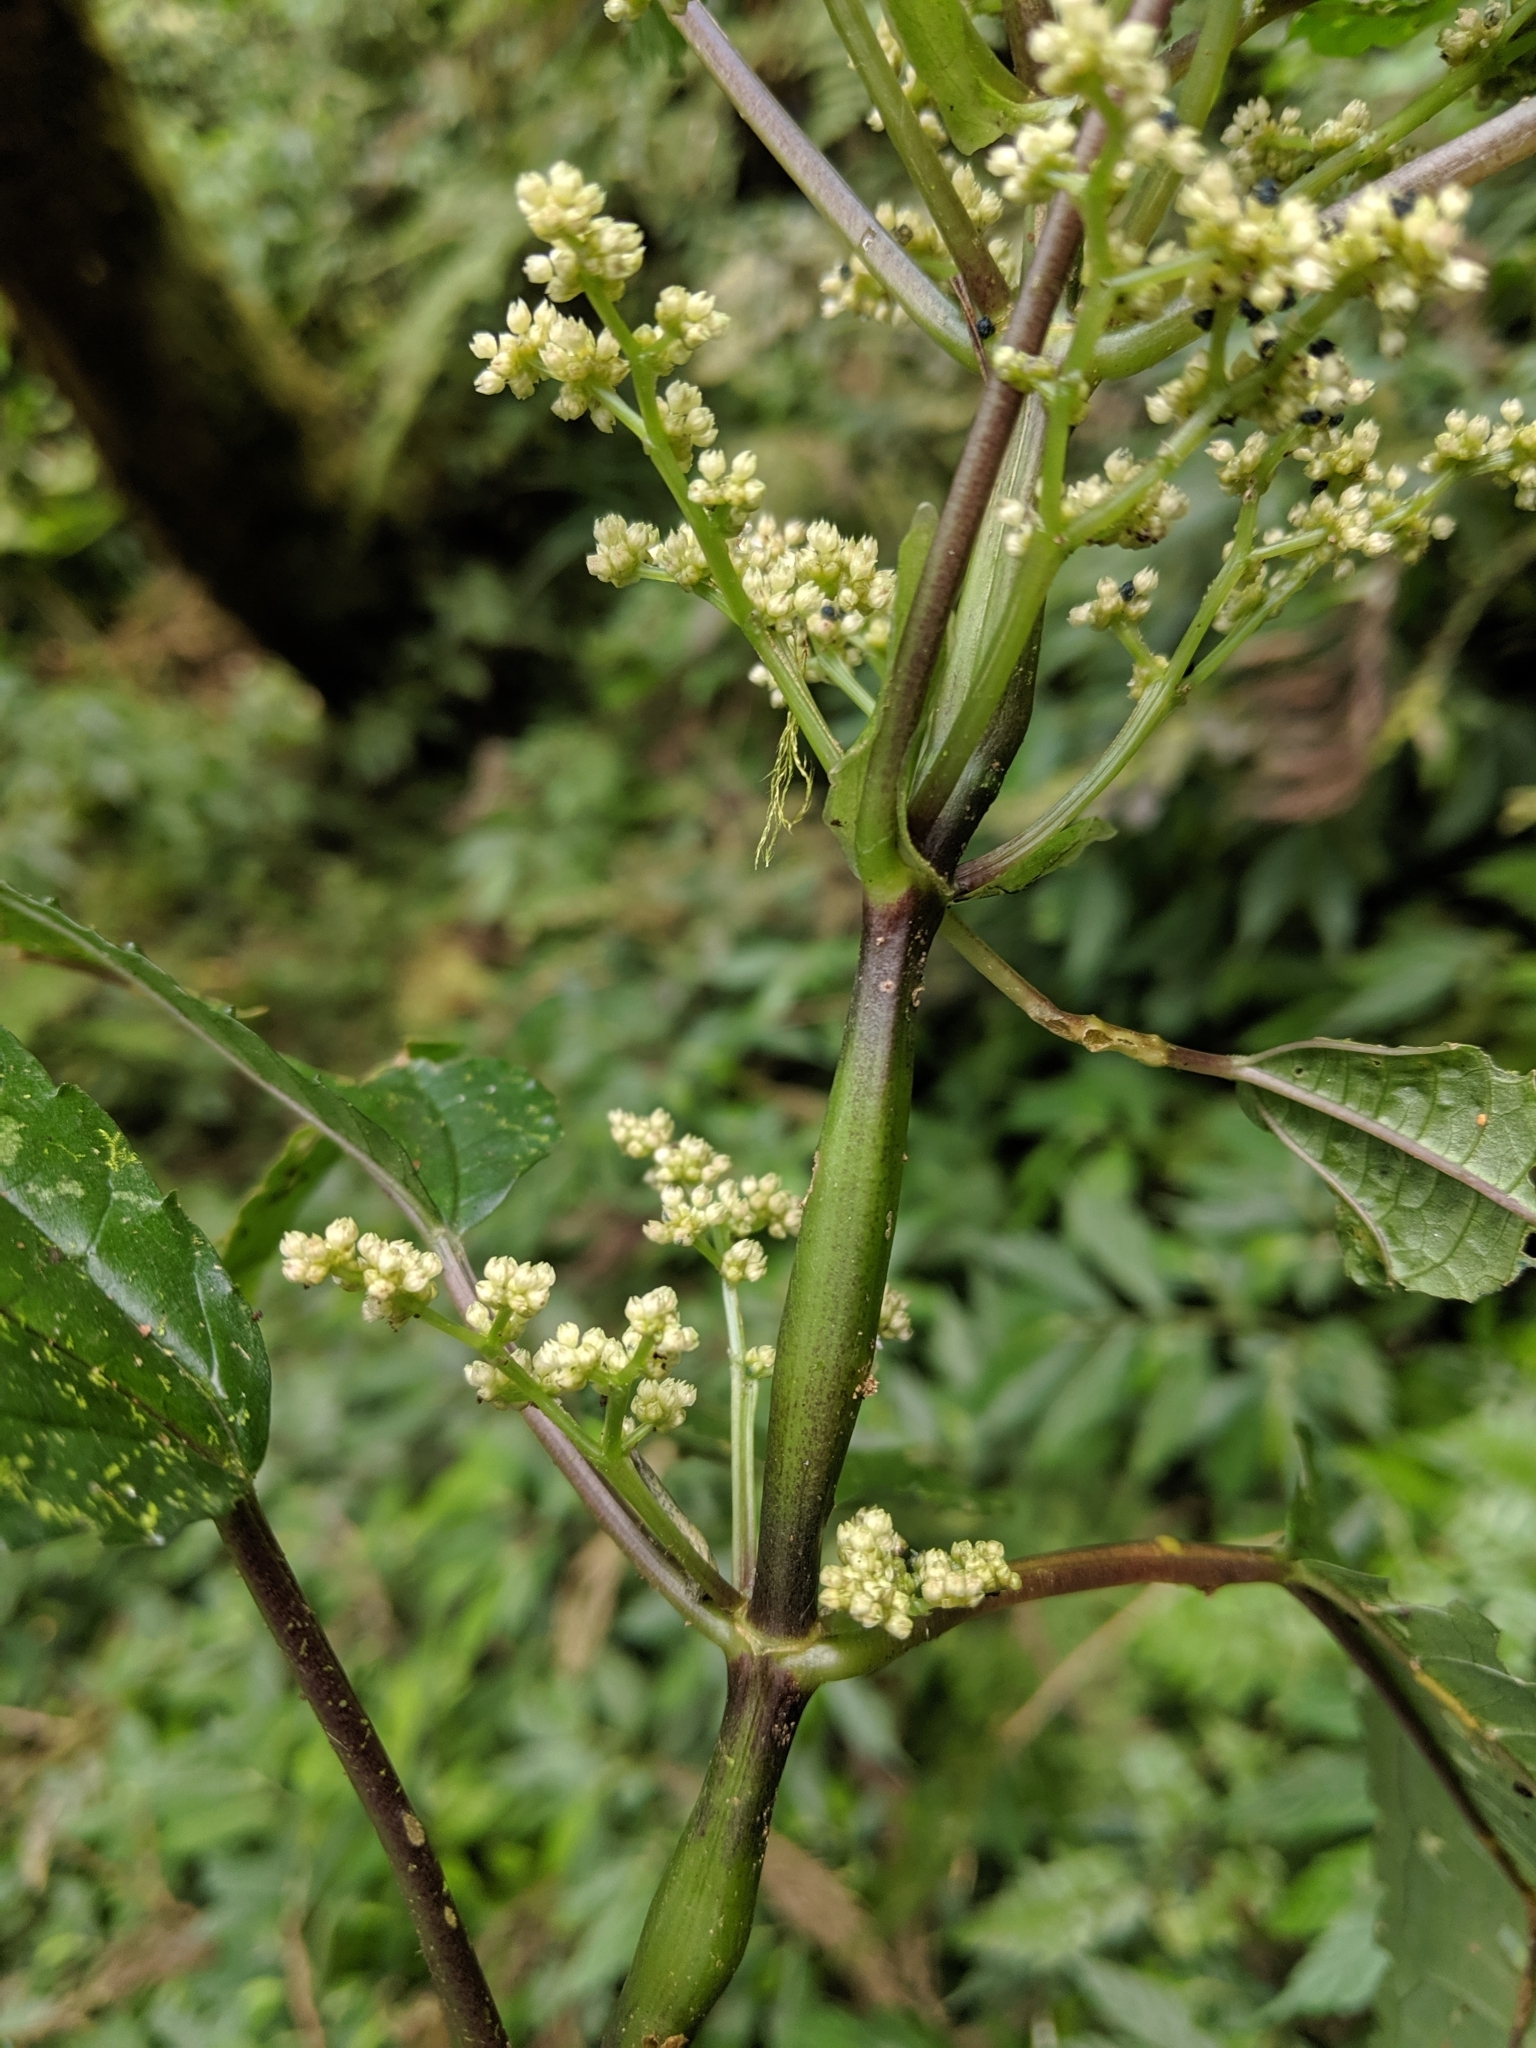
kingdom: Plantae
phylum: Tracheophyta
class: Magnoliopsida
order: Rosales
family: Urticaceae
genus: Pilea
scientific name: Pilea angulata
